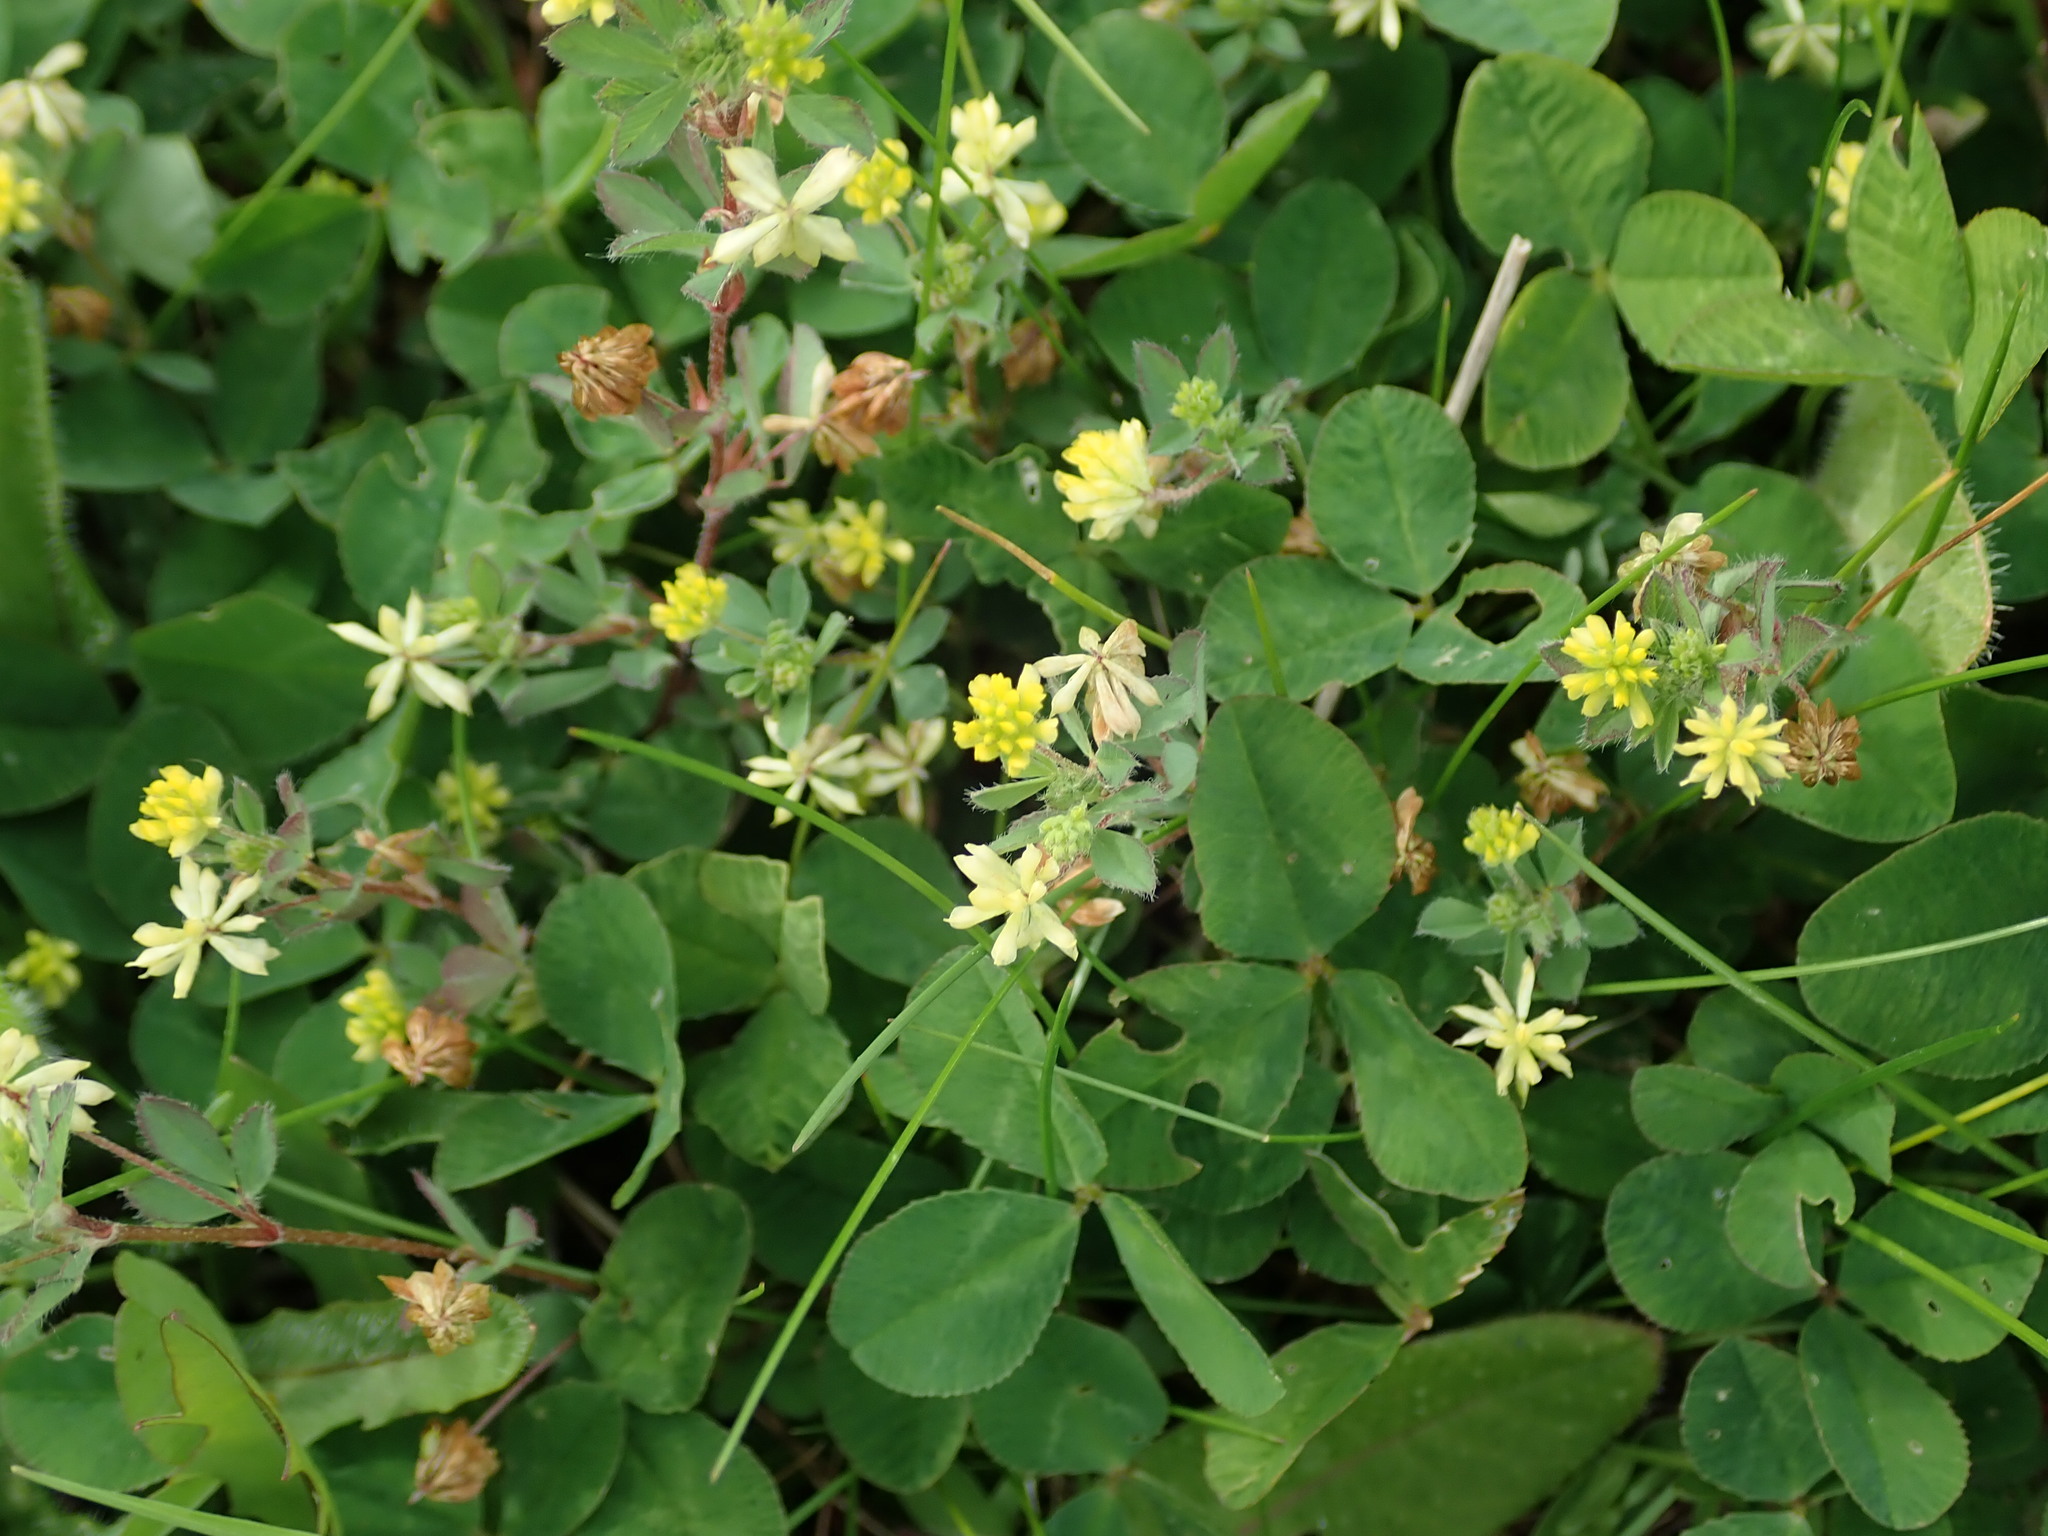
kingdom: Plantae
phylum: Tracheophyta
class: Magnoliopsida
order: Fabales
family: Fabaceae
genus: Trifolium
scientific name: Trifolium dubium
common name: Suckling clover
